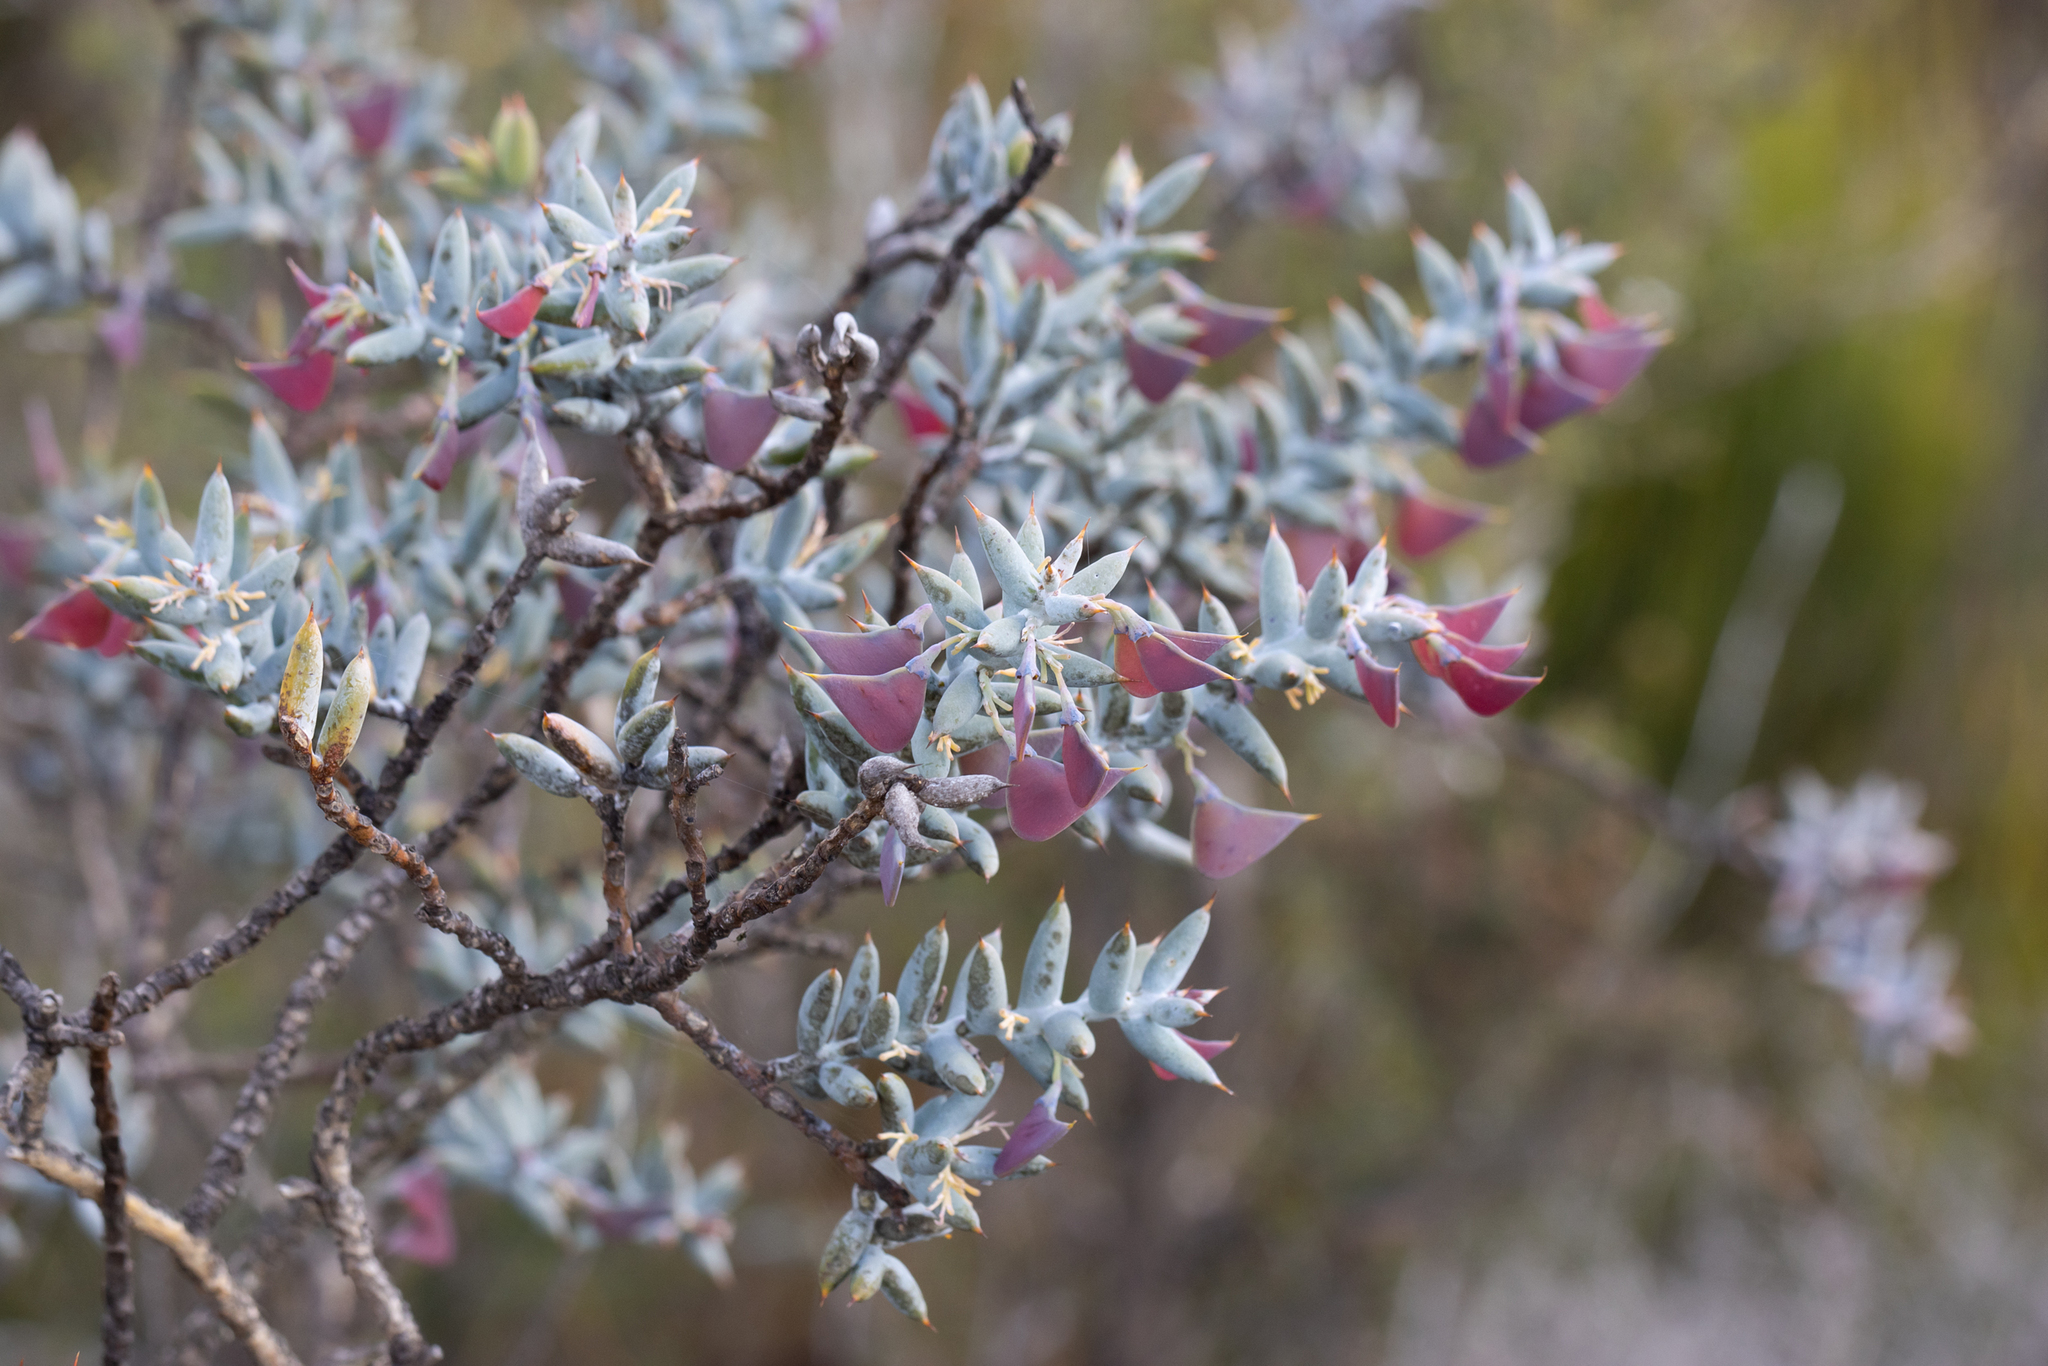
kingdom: Plantae
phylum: Tracheophyta
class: Magnoliopsida
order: Fabales
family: Fabaceae
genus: Daviesia
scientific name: Daviesia pachyphylla
